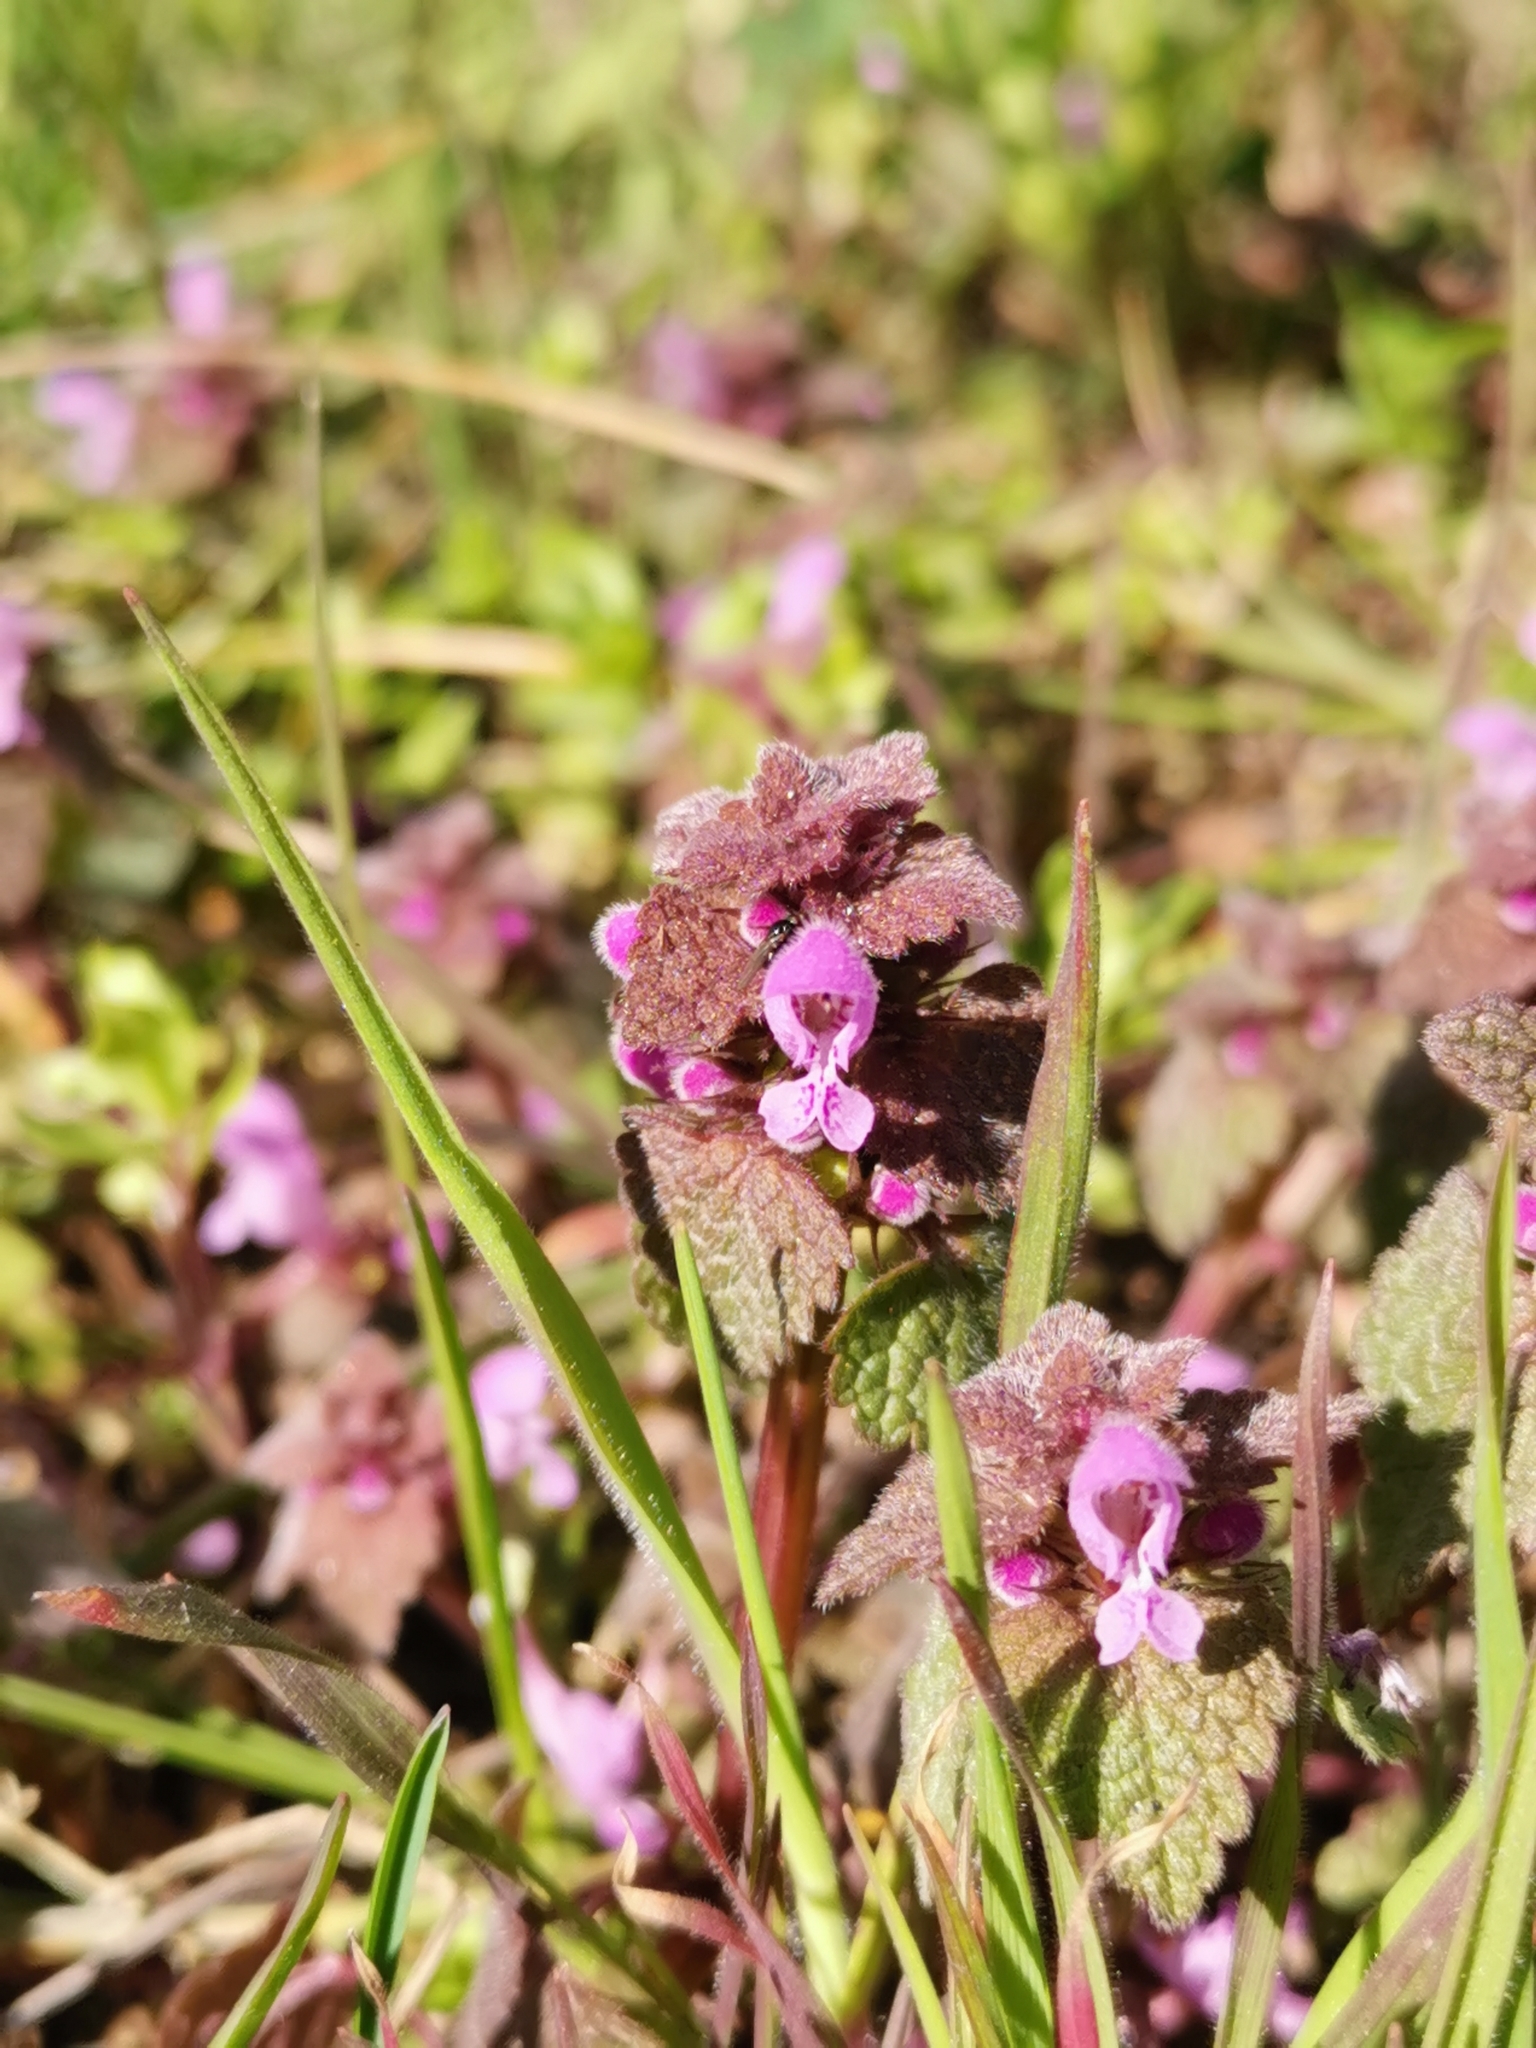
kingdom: Plantae
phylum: Tracheophyta
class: Magnoliopsida
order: Lamiales
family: Lamiaceae
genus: Lamium
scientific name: Lamium purpureum
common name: Red dead-nettle
